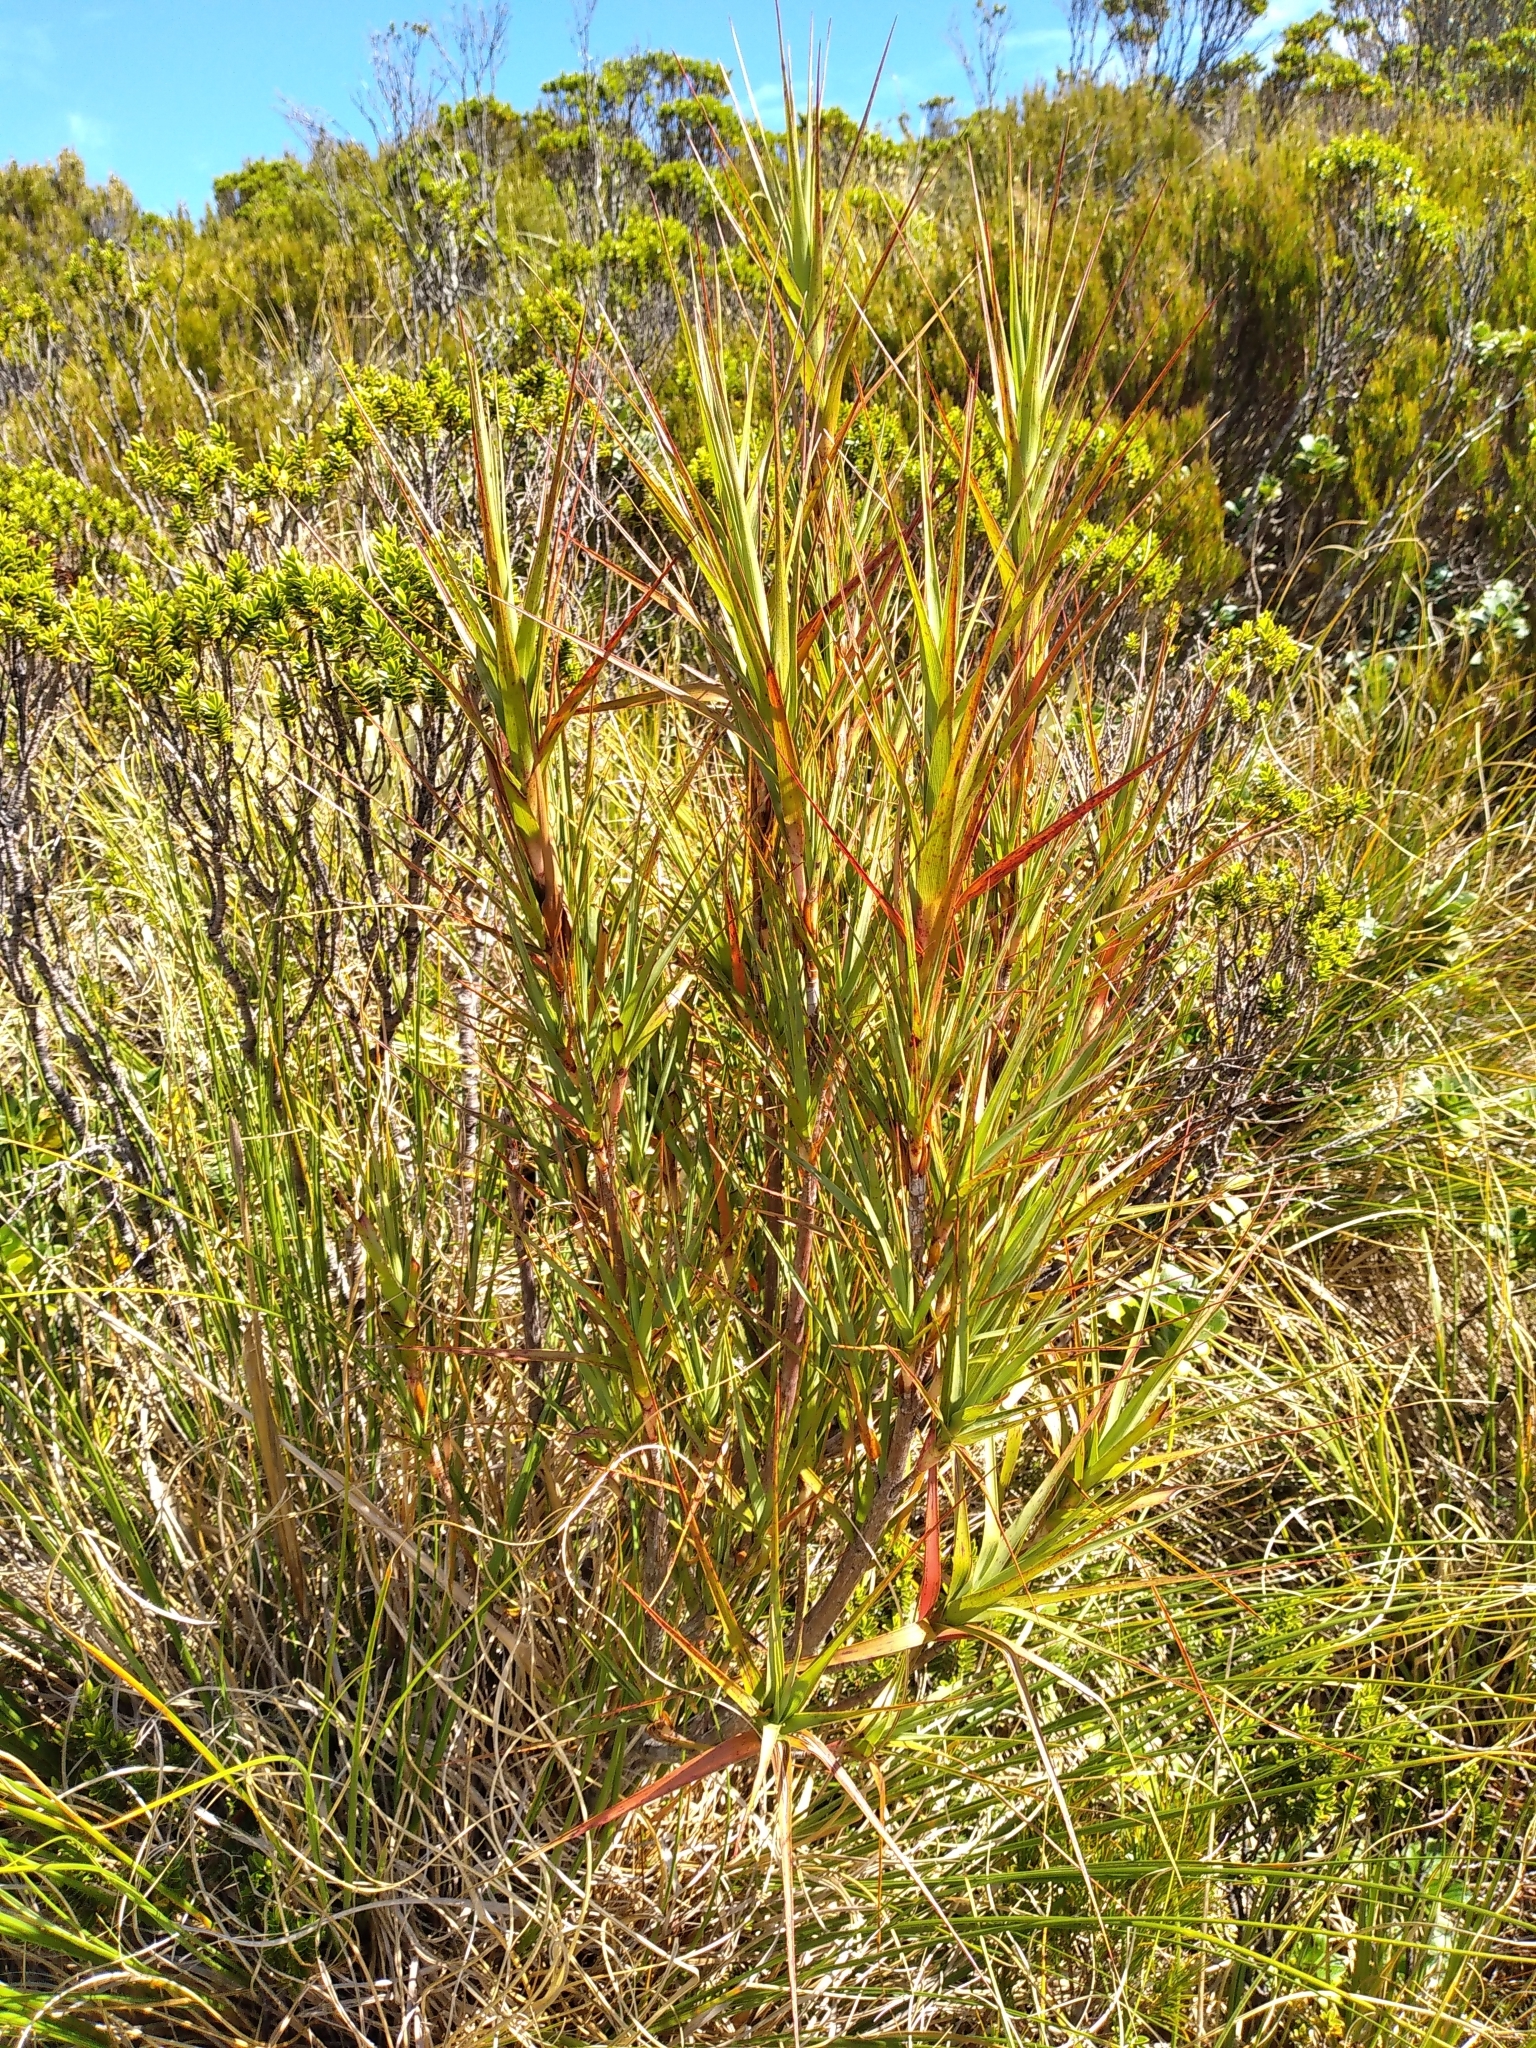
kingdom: Plantae
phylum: Tracheophyta
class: Magnoliopsida
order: Ericales
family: Ericaceae
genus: Dracophyllum
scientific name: Dracophyllum longifolium
